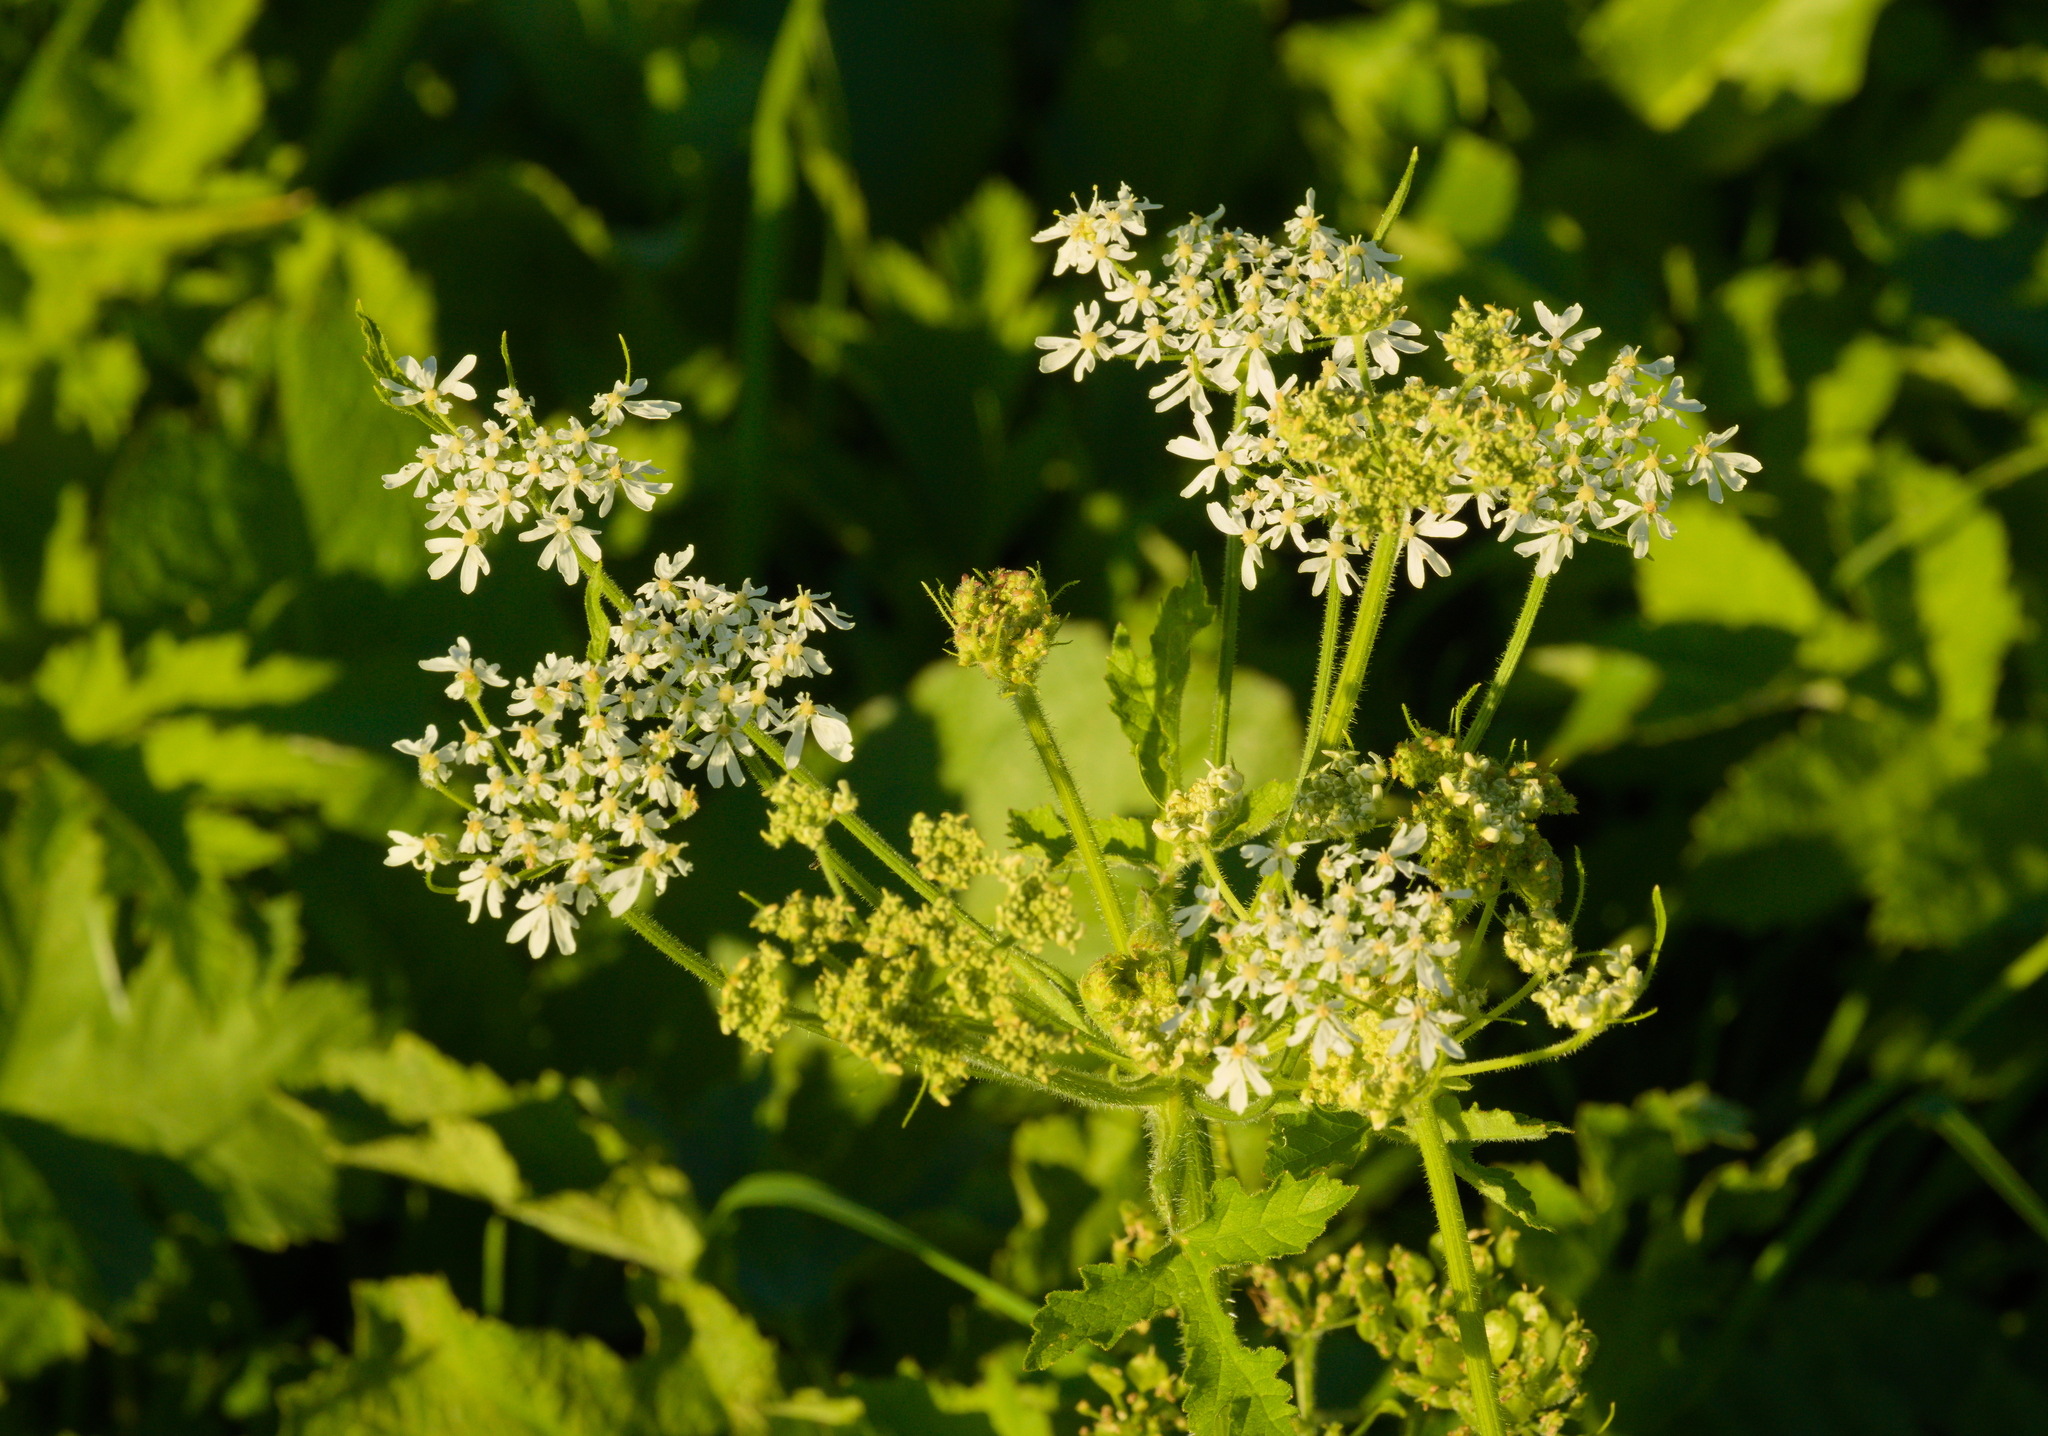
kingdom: Plantae
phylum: Tracheophyta
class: Magnoliopsida
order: Apiales
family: Apiaceae
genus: Heracleum
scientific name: Heracleum sphondylium
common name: Hogweed
